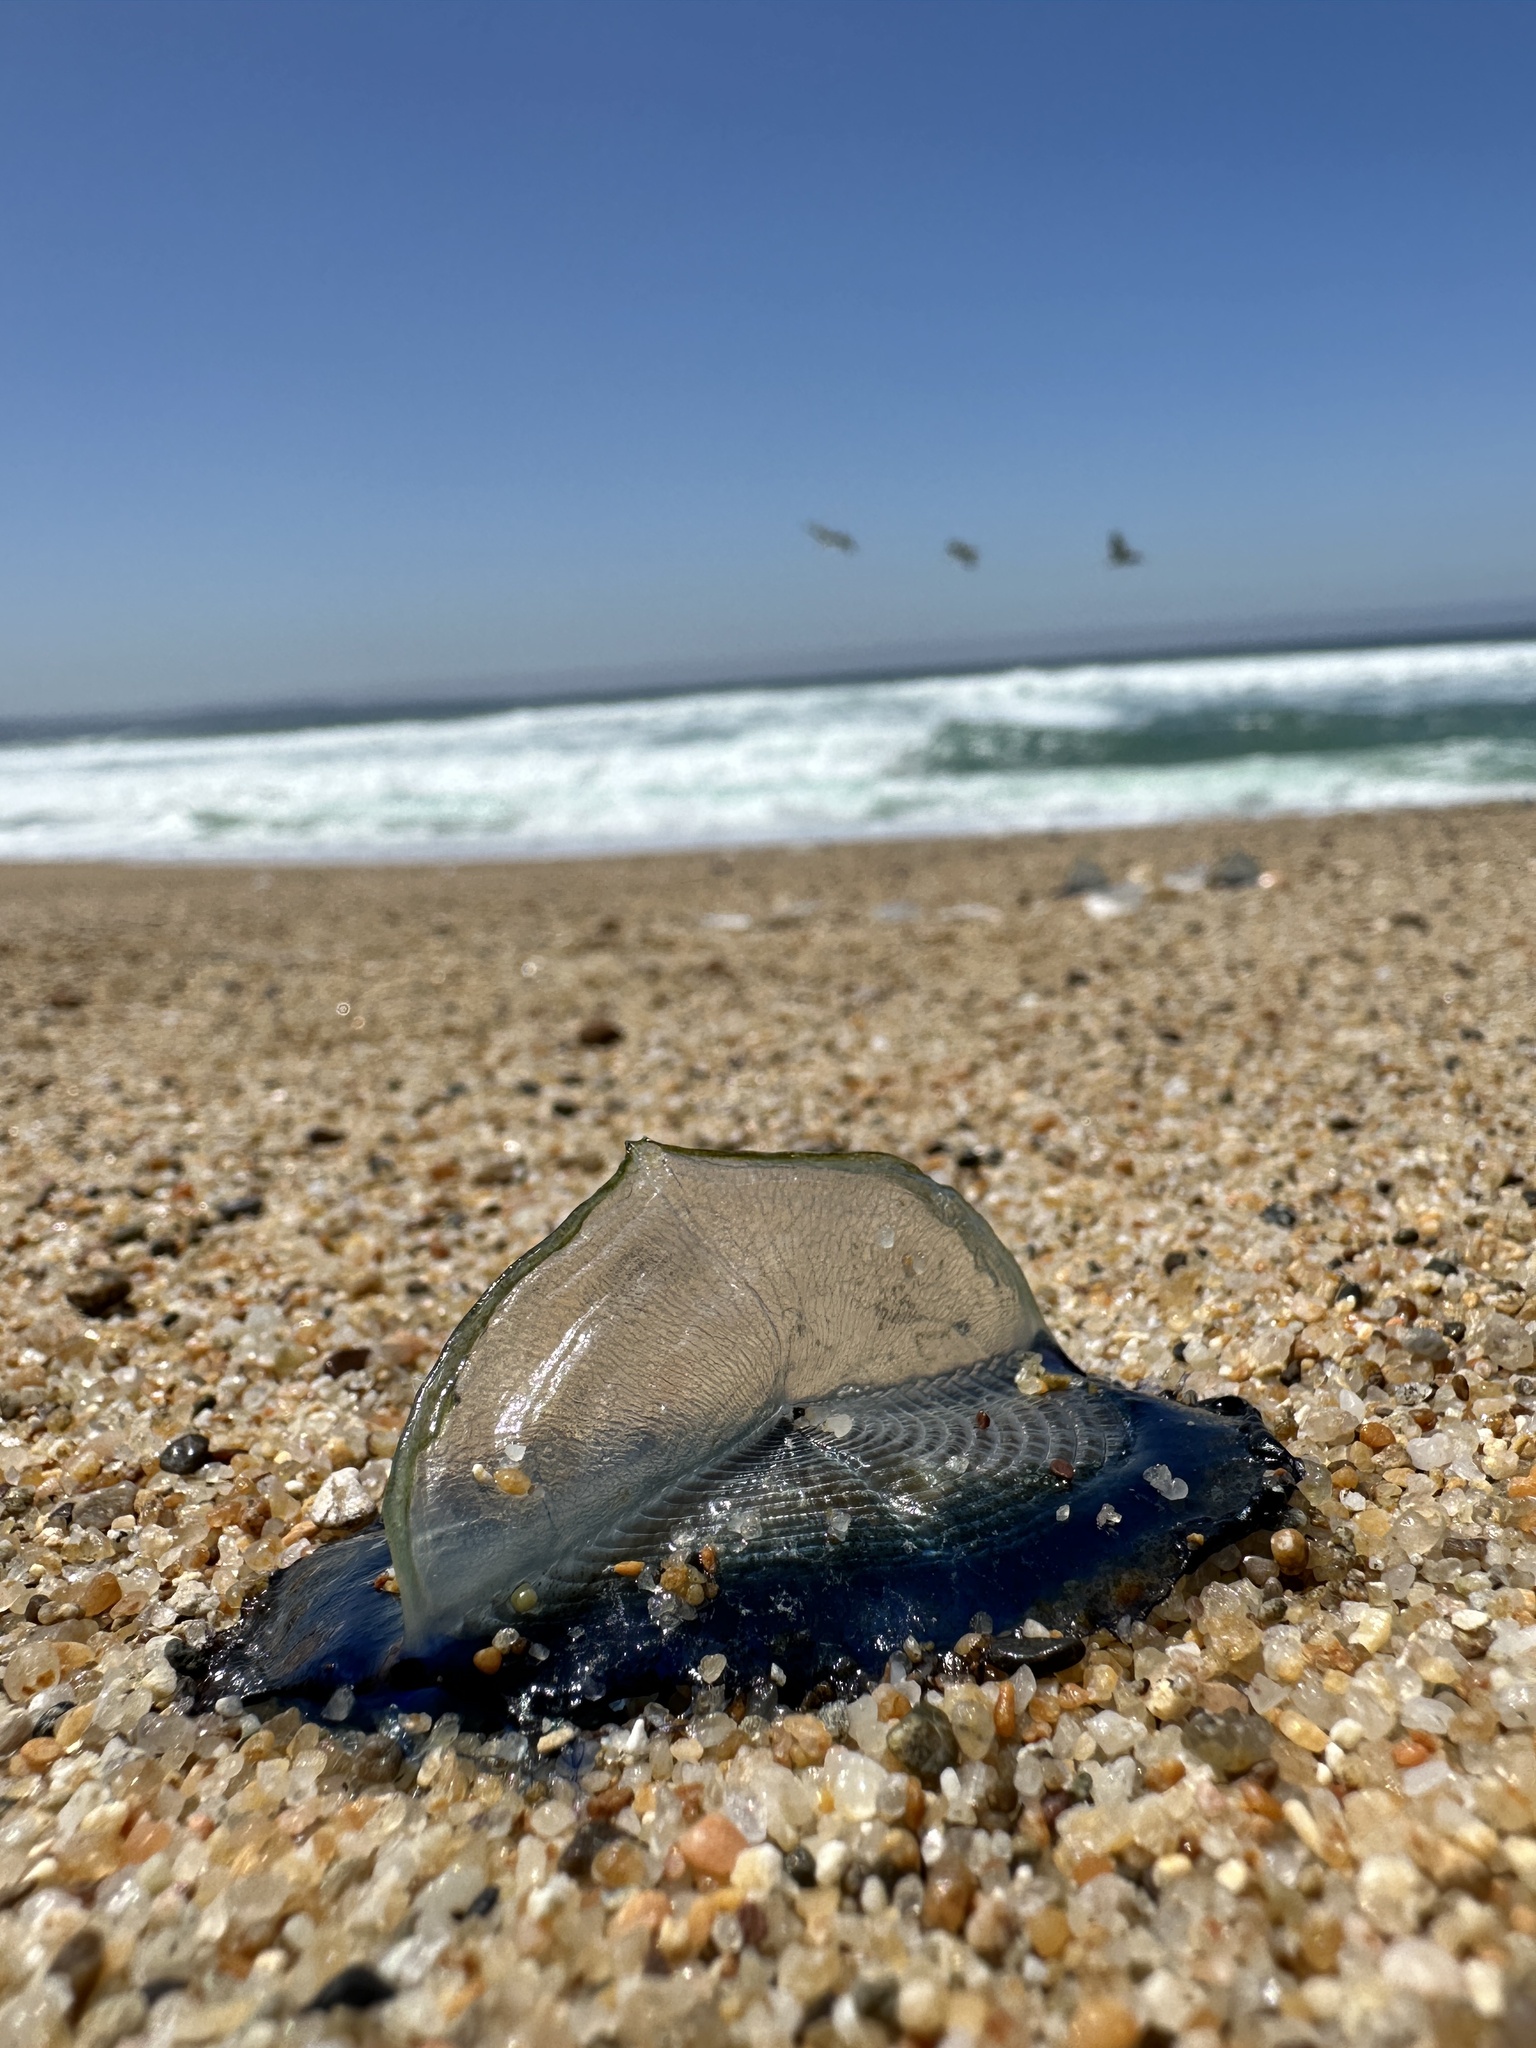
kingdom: Animalia
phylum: Cnidaria
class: Hydrozoa
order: Anthoathecata
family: Porpitidae
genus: Velella
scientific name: Velella velella
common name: By-the-wind-sailor
